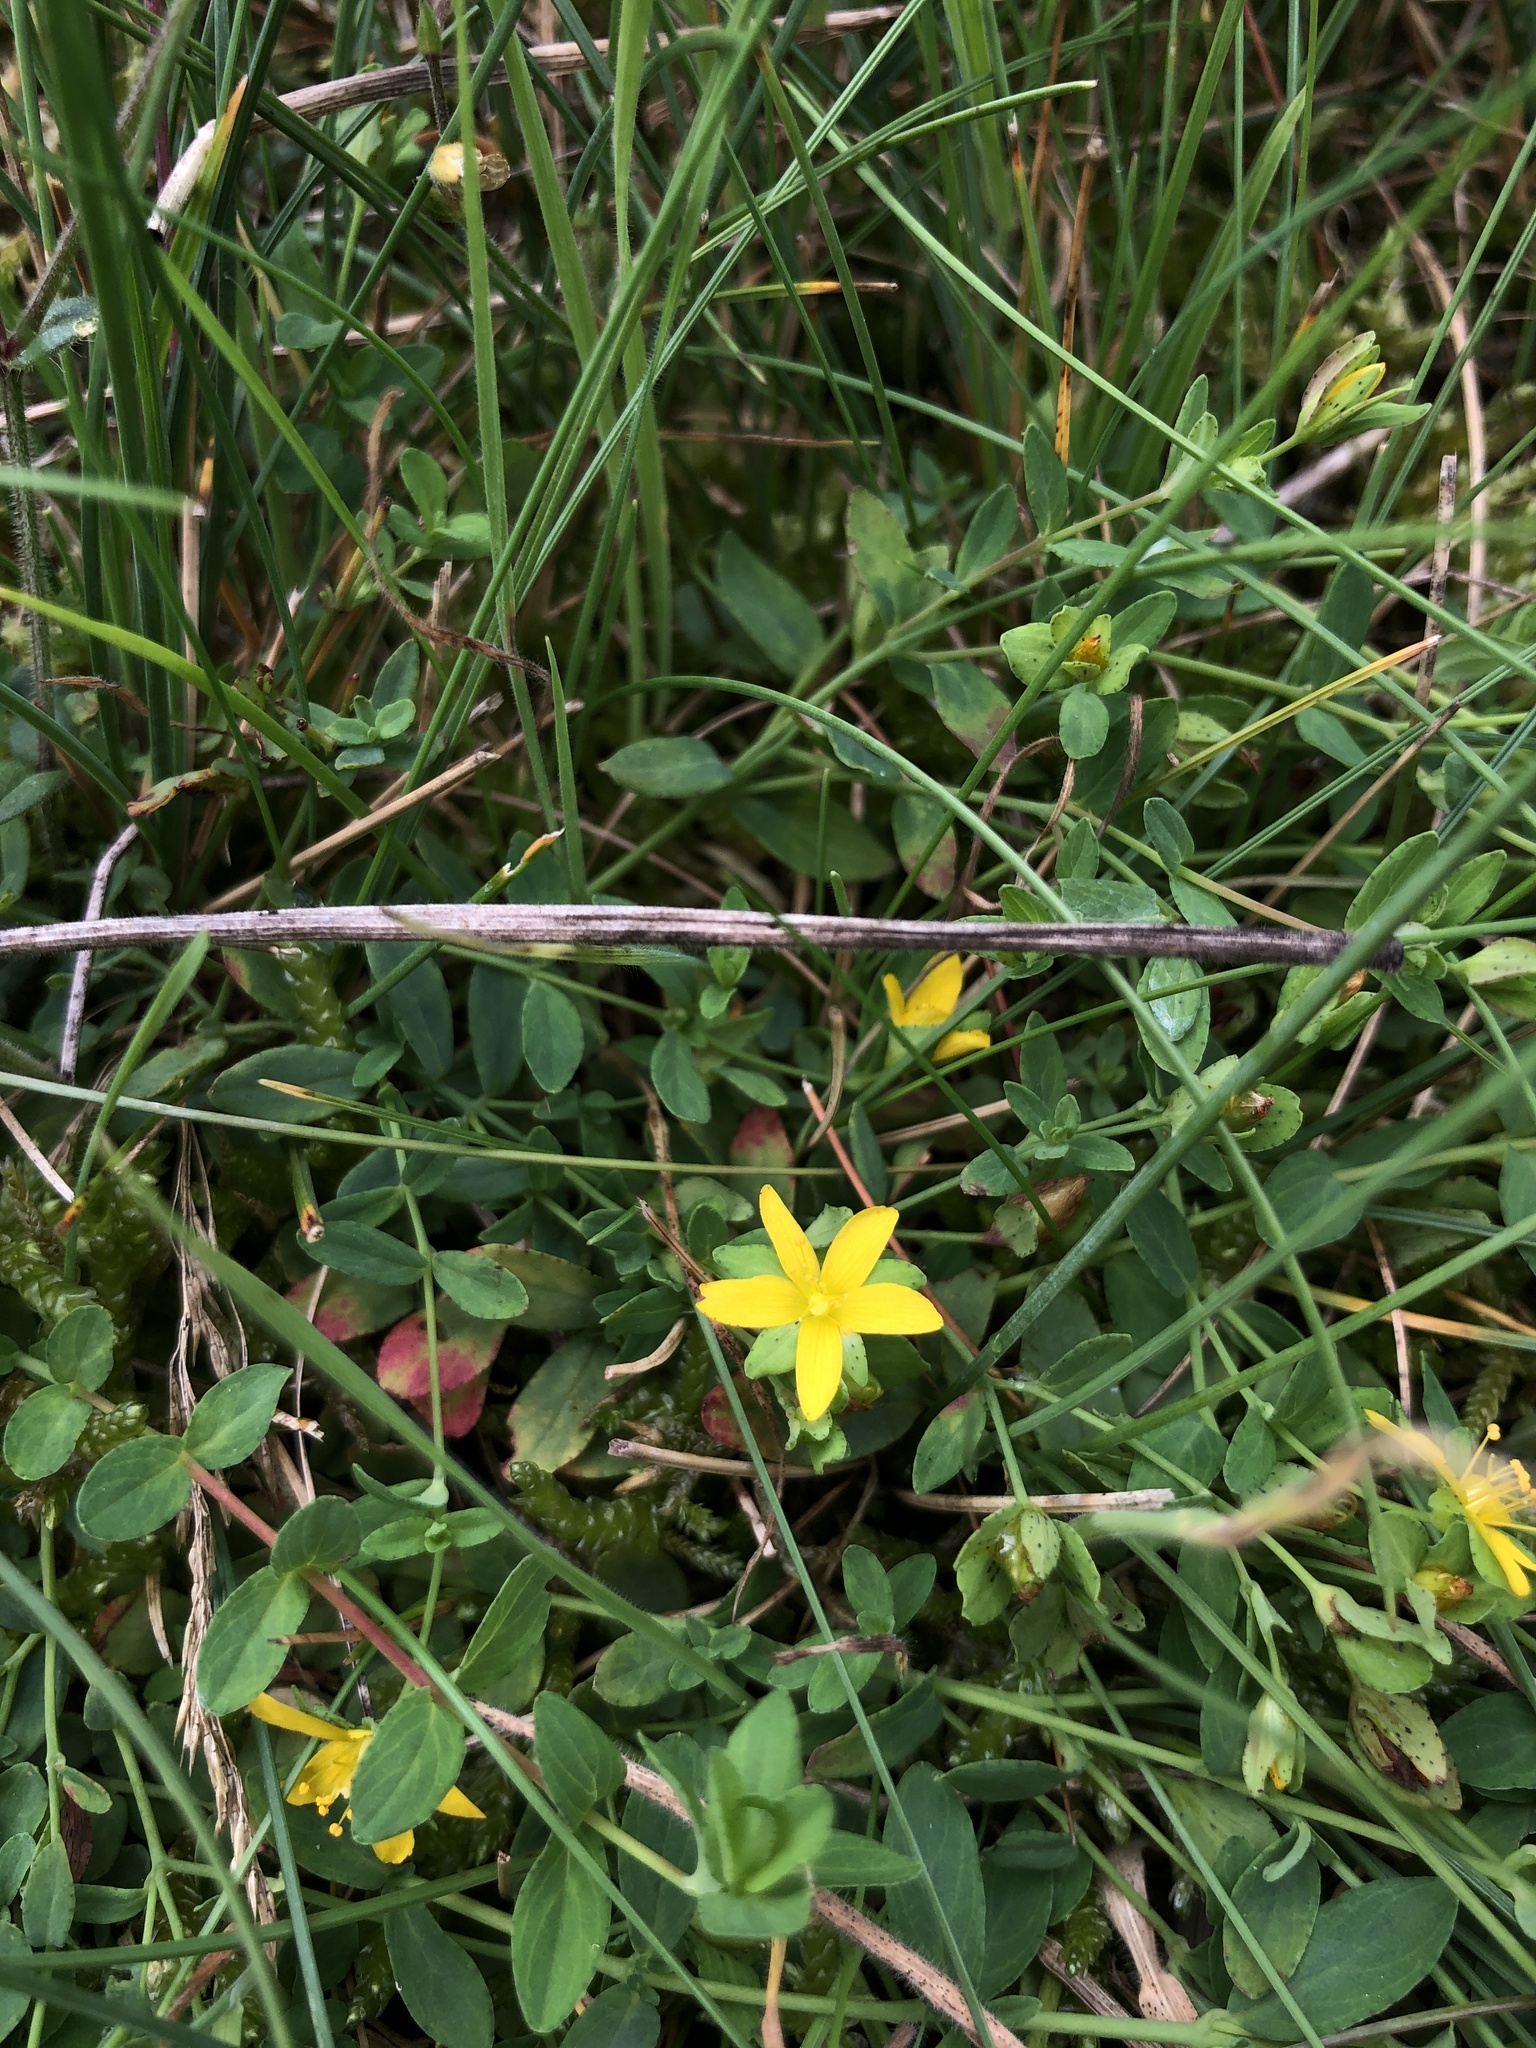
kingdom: Plantae
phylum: Tracheophyta
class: Magnoliopsida
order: Malpighiales
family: Hypericaceae
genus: Hypericum
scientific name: Hypericum humifusum
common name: Trailing st. john's-wort
